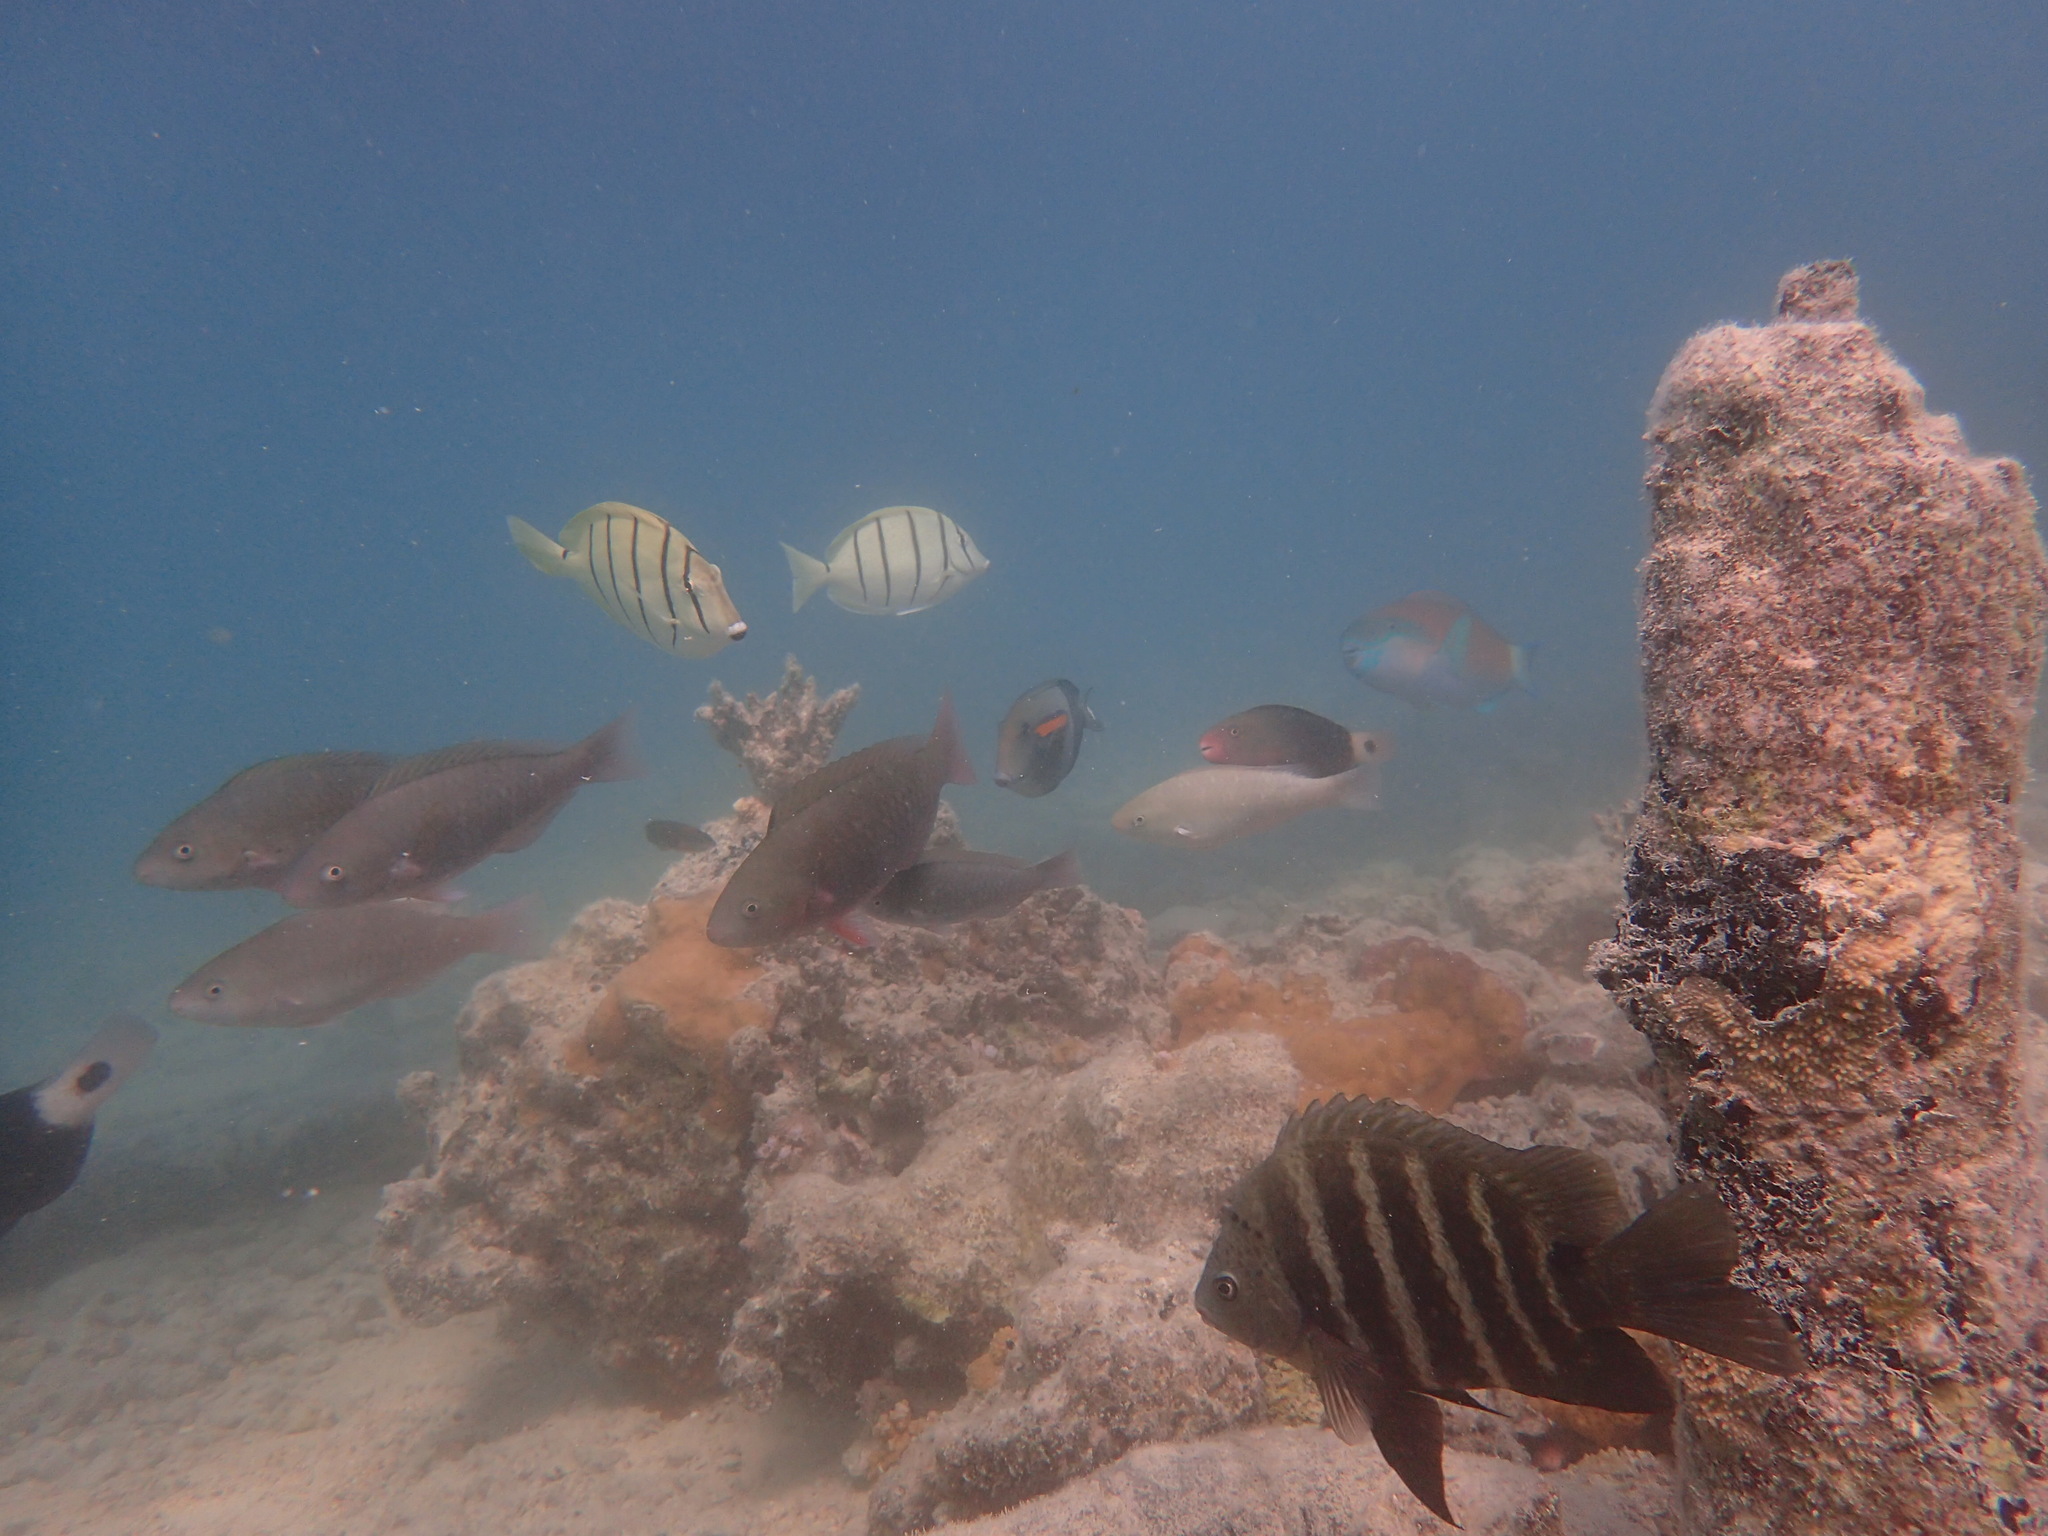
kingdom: Animalia
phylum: Chordata
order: Perciformes
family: Pomacentridae
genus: Abudefduf
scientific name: Abudefduf sordidus
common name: Blackspot sergeant
